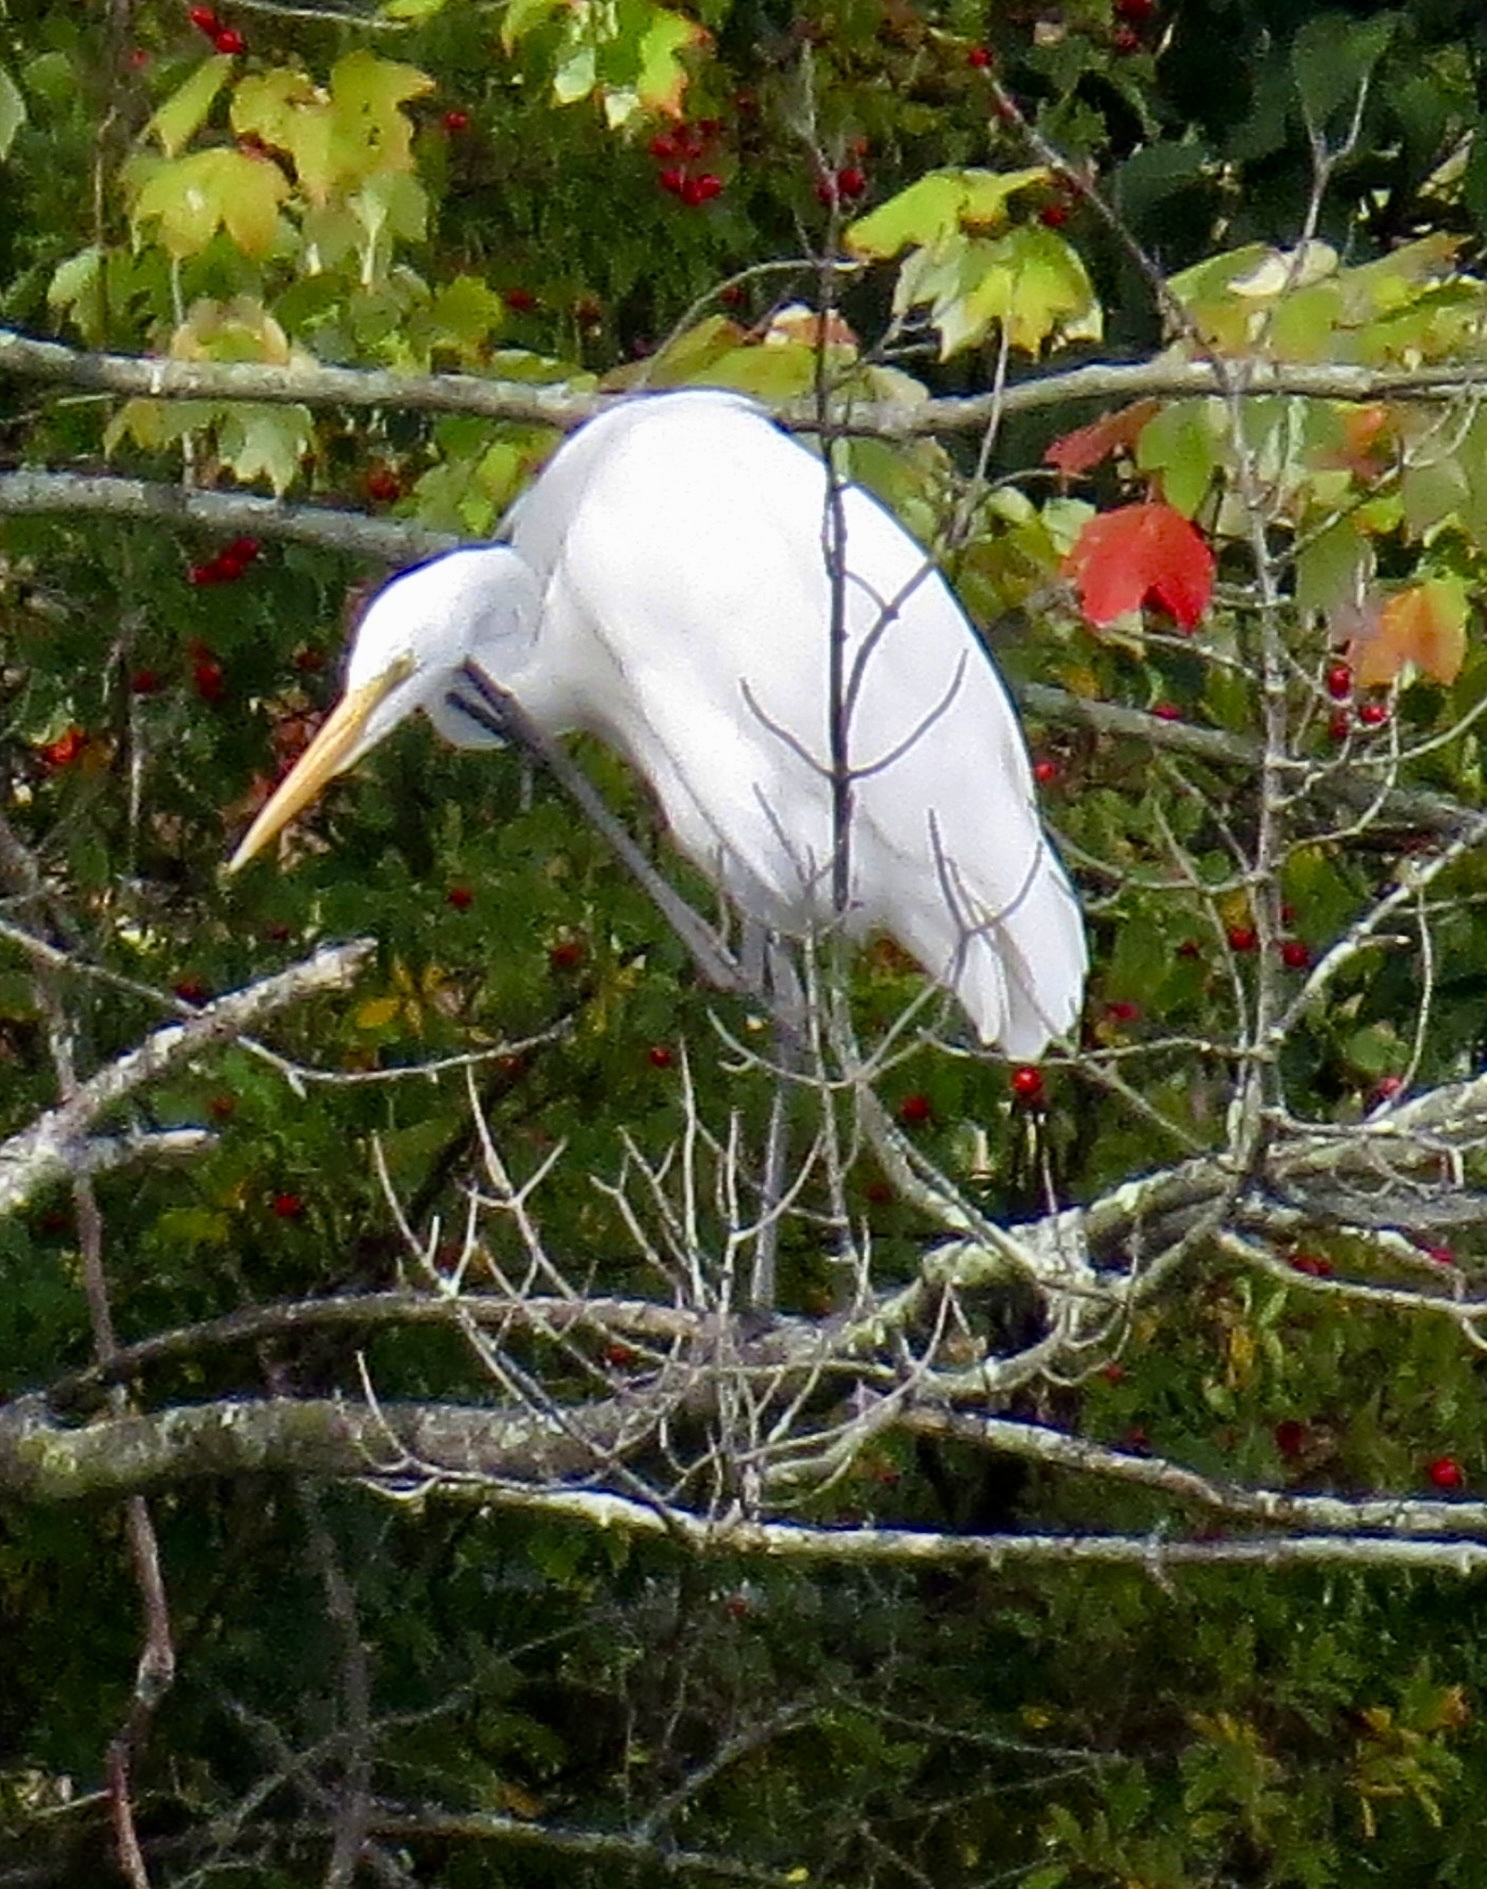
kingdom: Animalia
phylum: Chordata
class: Aves
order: Pelecaniformes
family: Ardeidae
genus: Ardea
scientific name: Ardea alba
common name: Great egret
